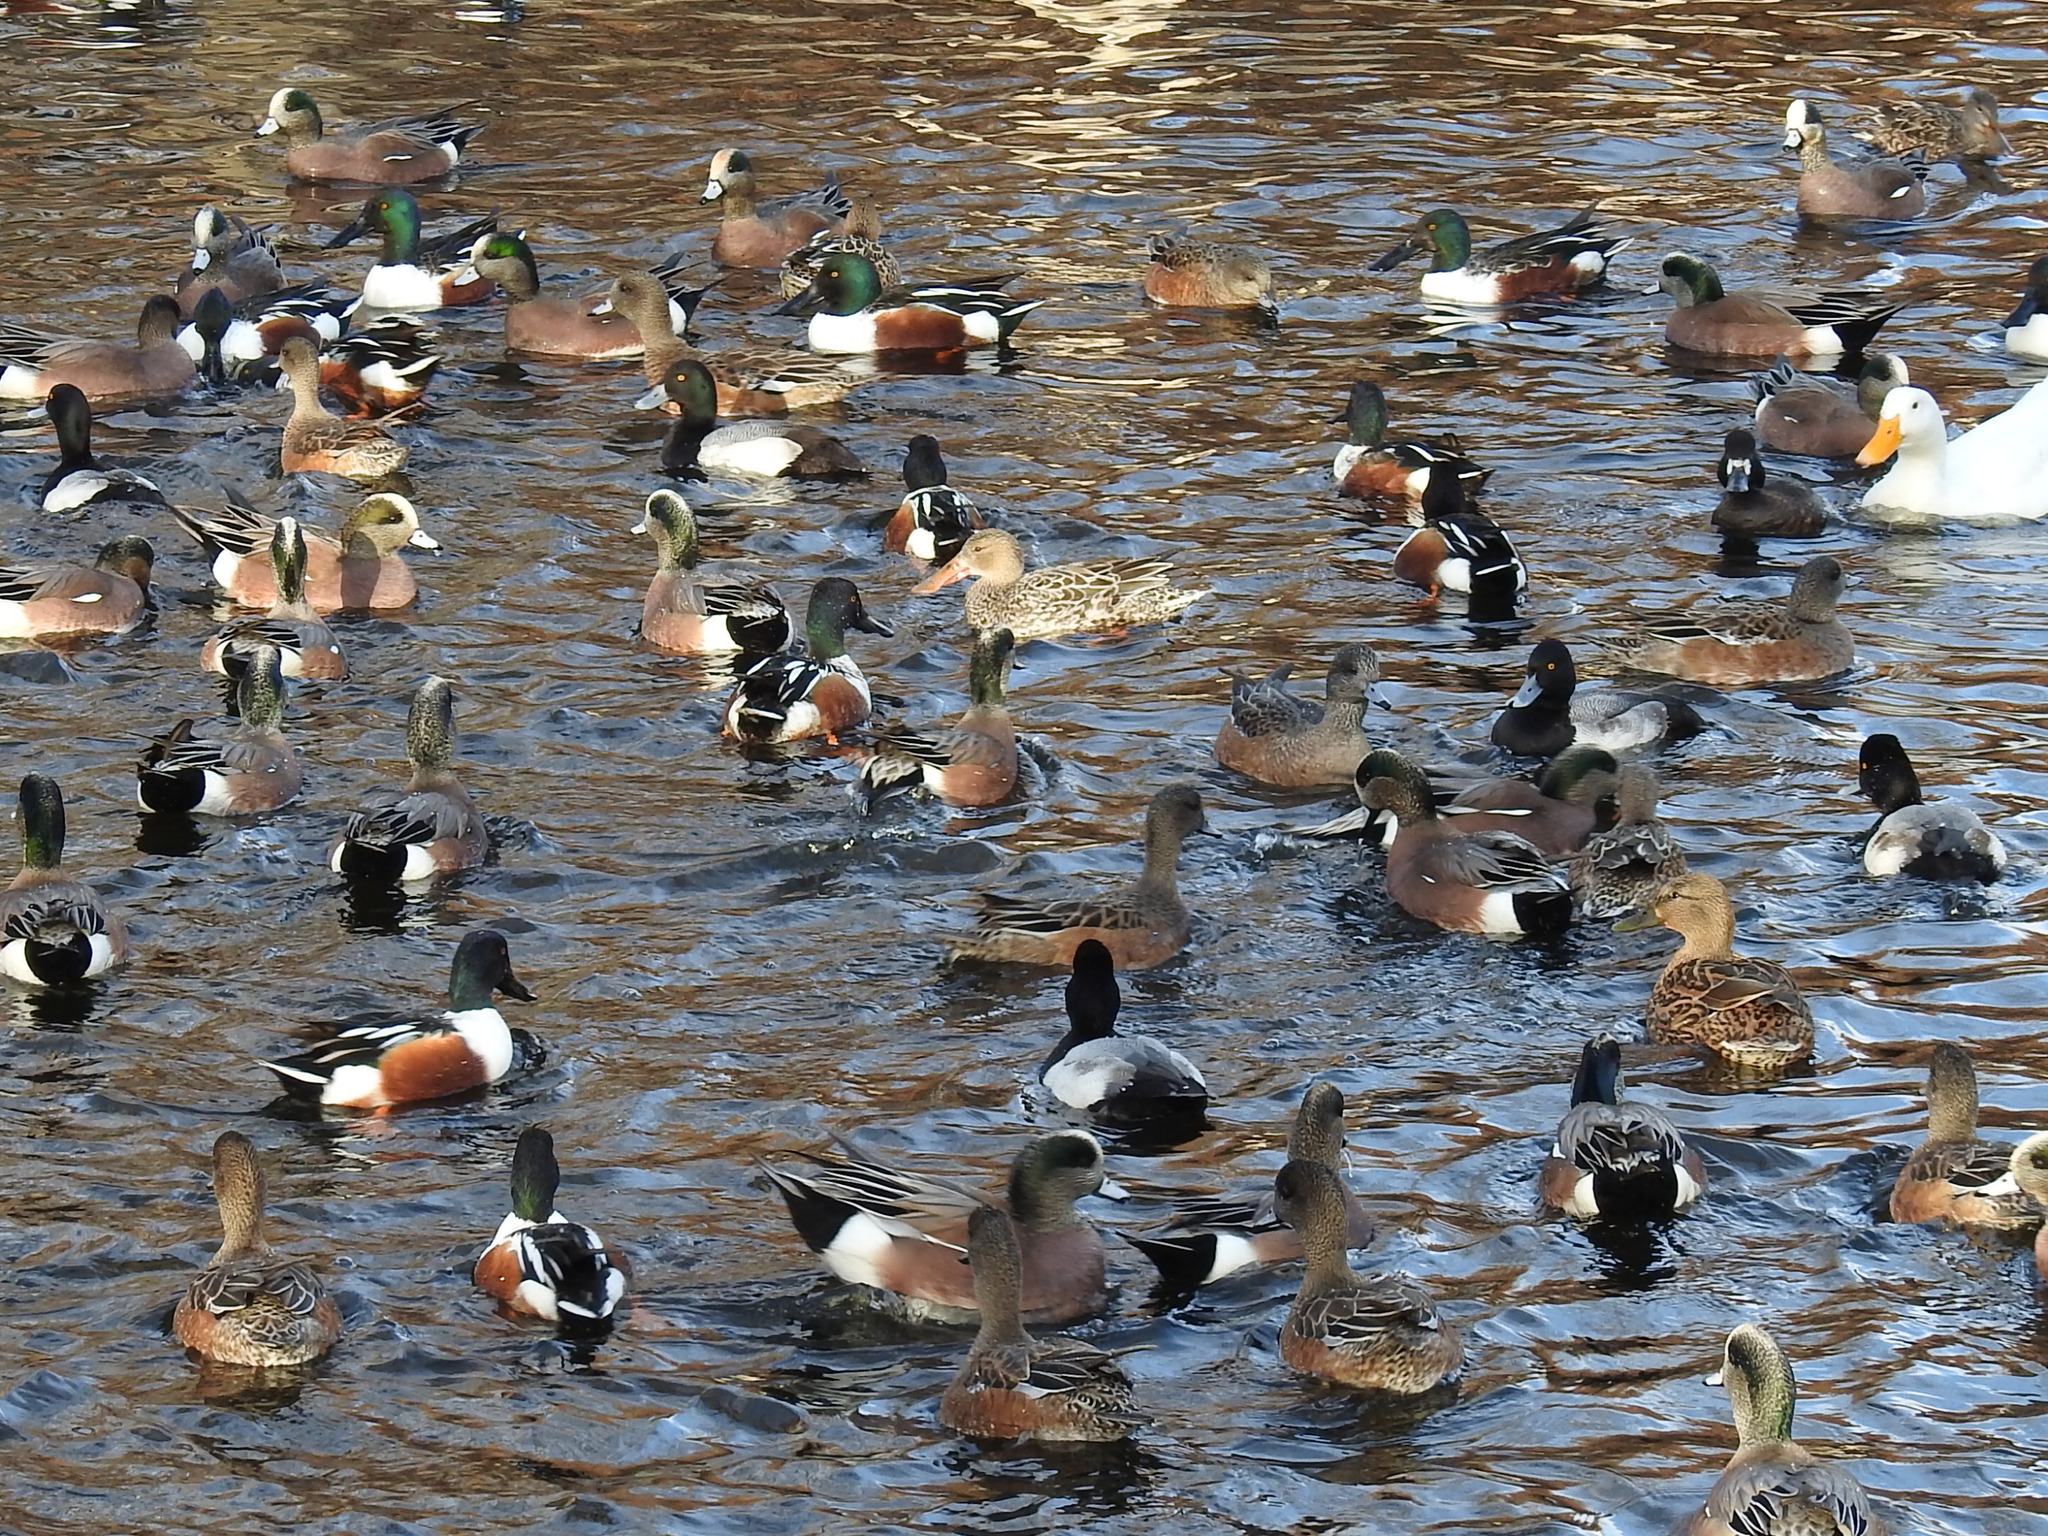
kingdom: Animalia
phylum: Chordata
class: Aves
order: Anseriformes
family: Anatidae
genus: Spatula
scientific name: Spatula clypeata
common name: Northern shoveler
